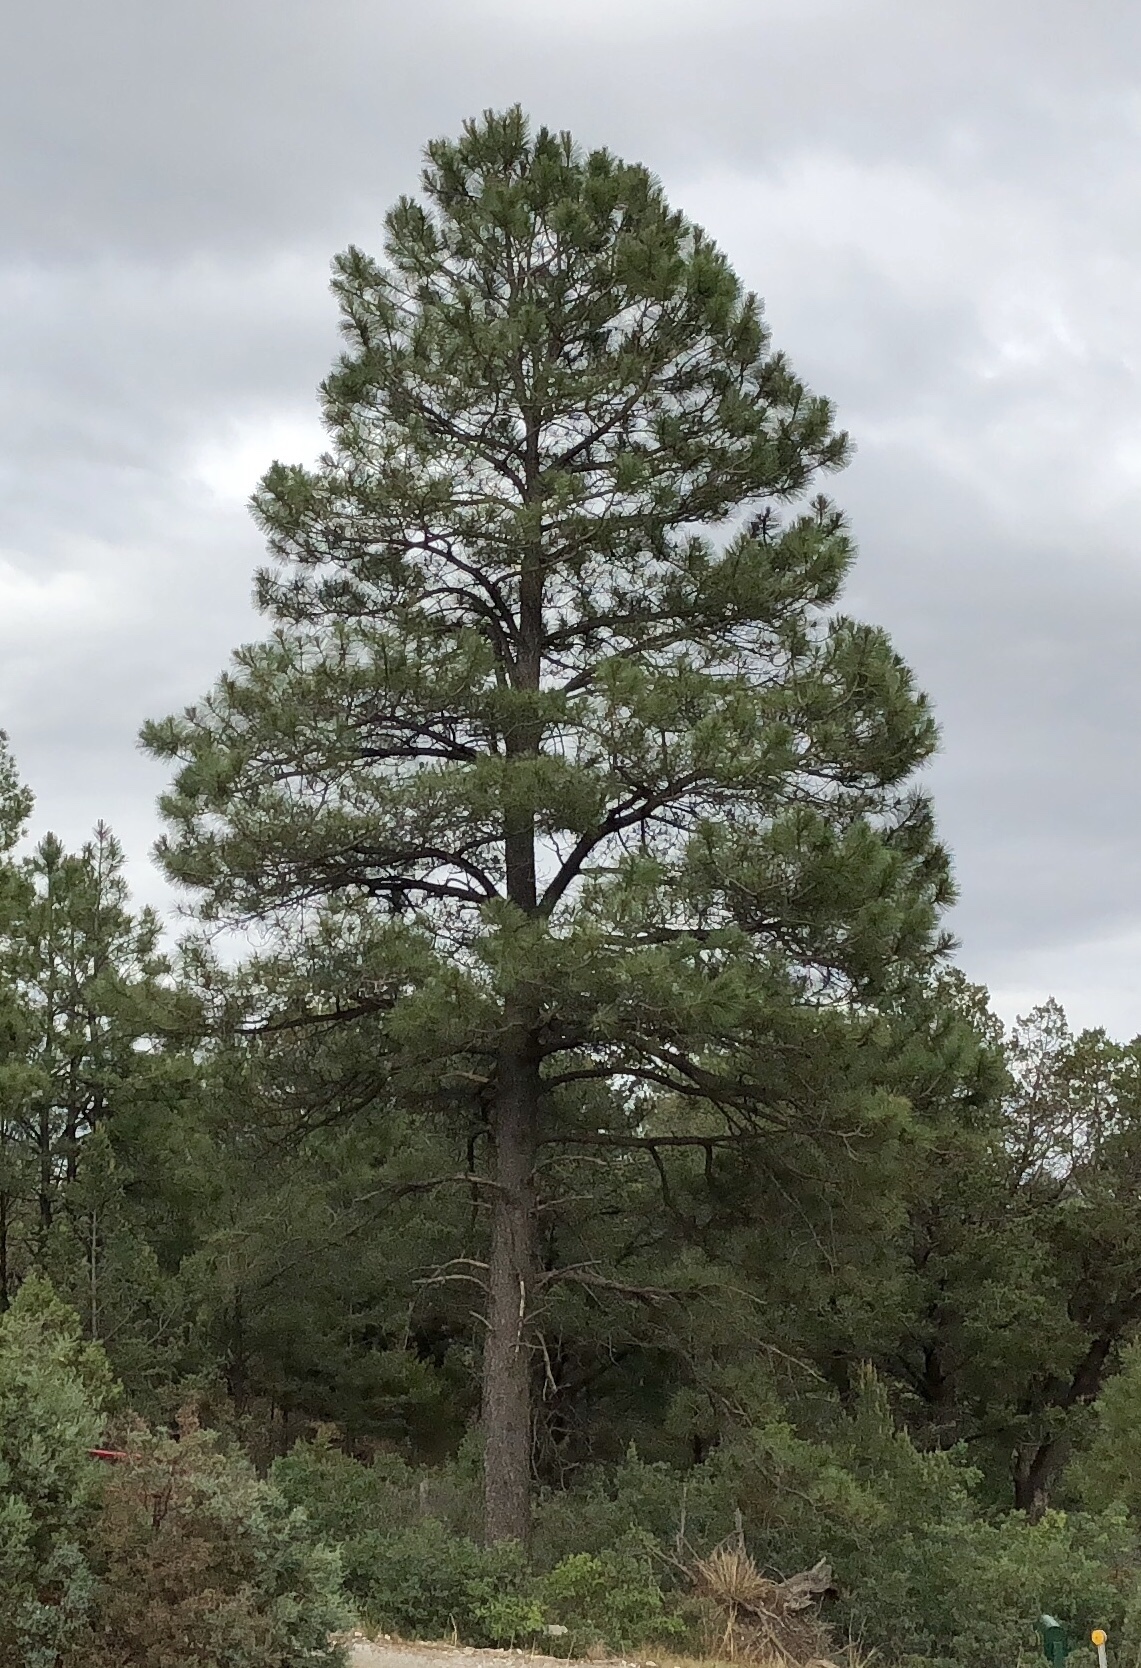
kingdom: Plantae
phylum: Tracheophyta
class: Pinopsida
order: Pinales
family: Pinaceae
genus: Pinus
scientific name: Pinus ponderosa
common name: Western yellow-pine
